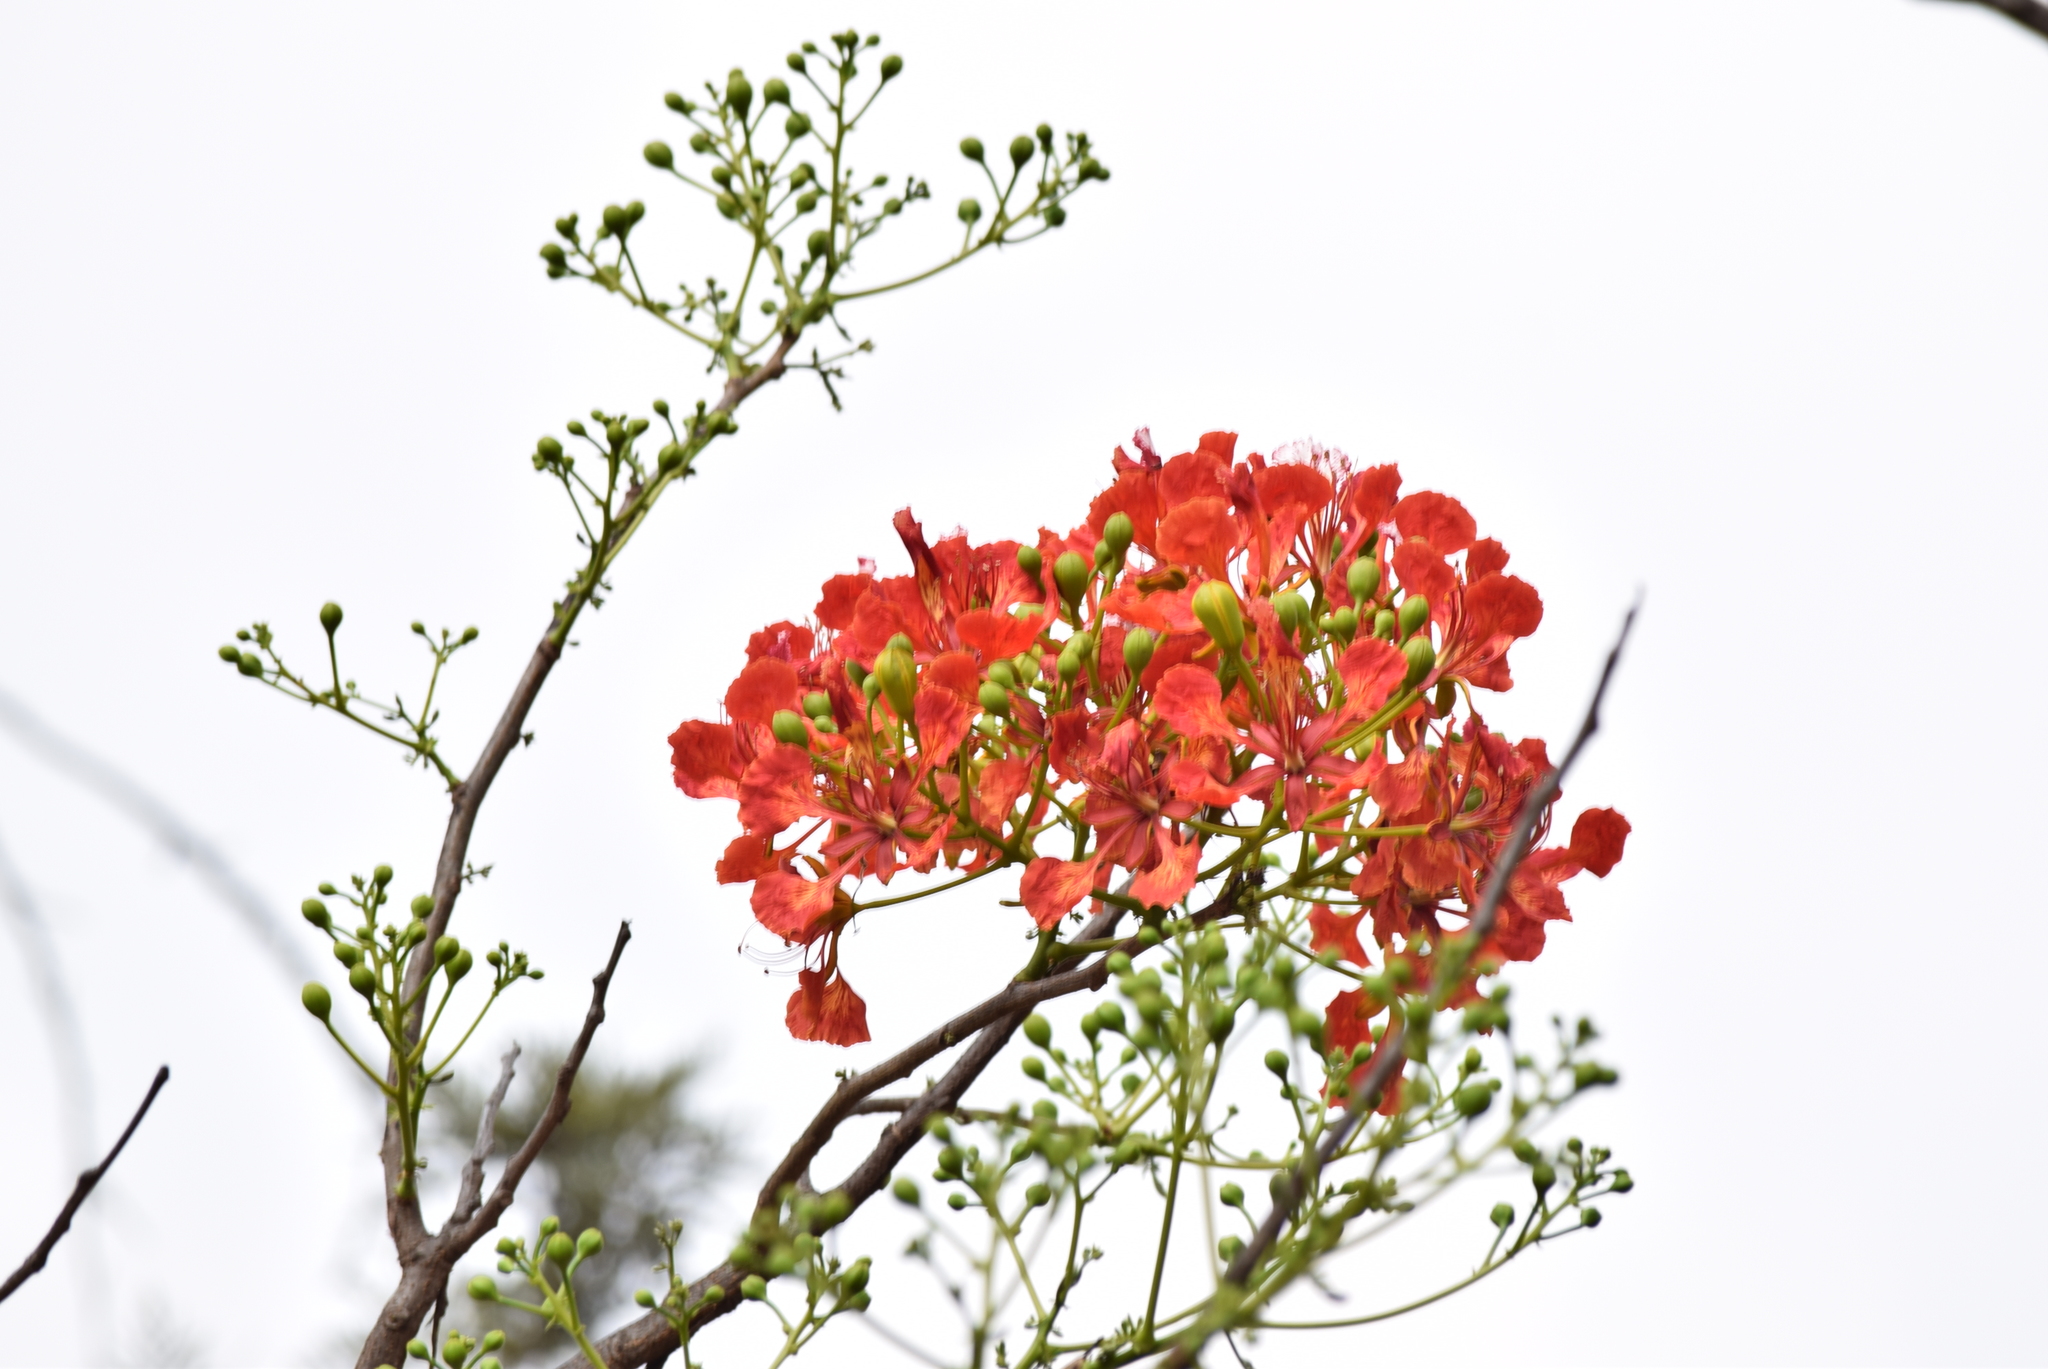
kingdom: Plantae
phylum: Tracheophyta
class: Magnoliopsida
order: Fabales
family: Fabaceae
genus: Delonix
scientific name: Delonix regia
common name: Royal poinciana
